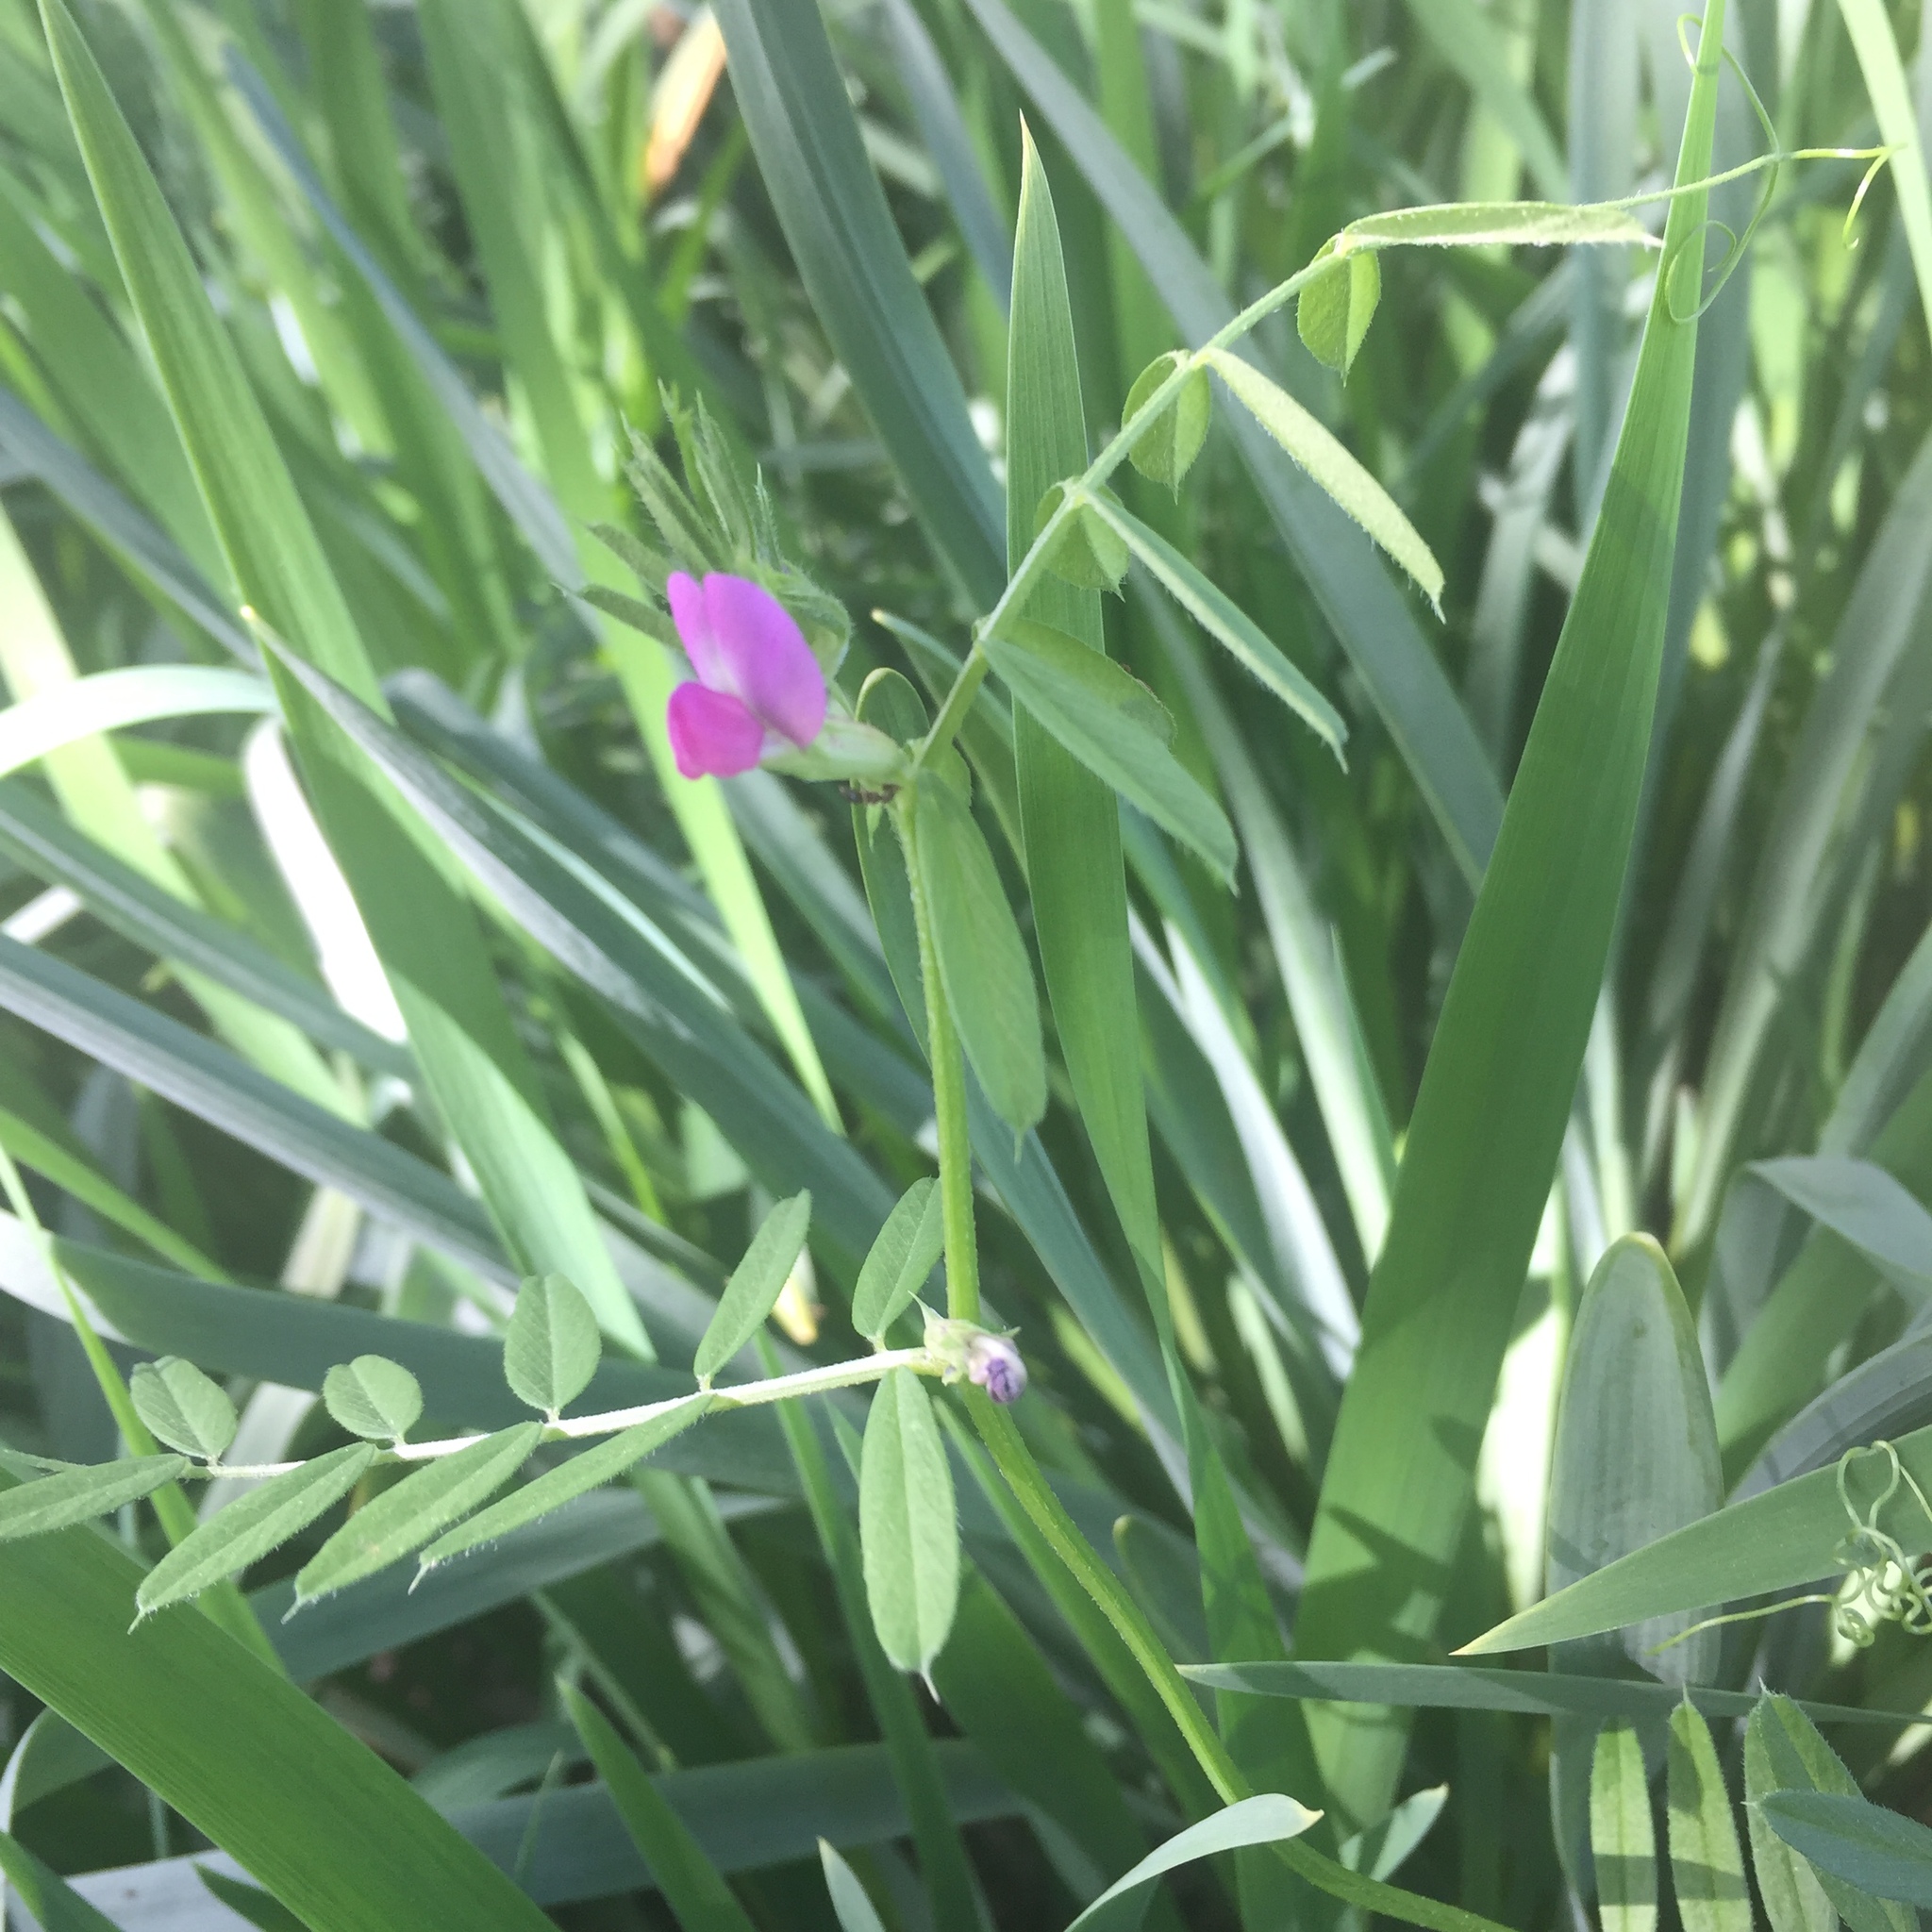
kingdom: Plantae
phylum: Tracheophyta
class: Magnoliopsida
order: Fabales
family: Fabaceae
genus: Vicia
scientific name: Vicia sativa
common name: Garden vetch
